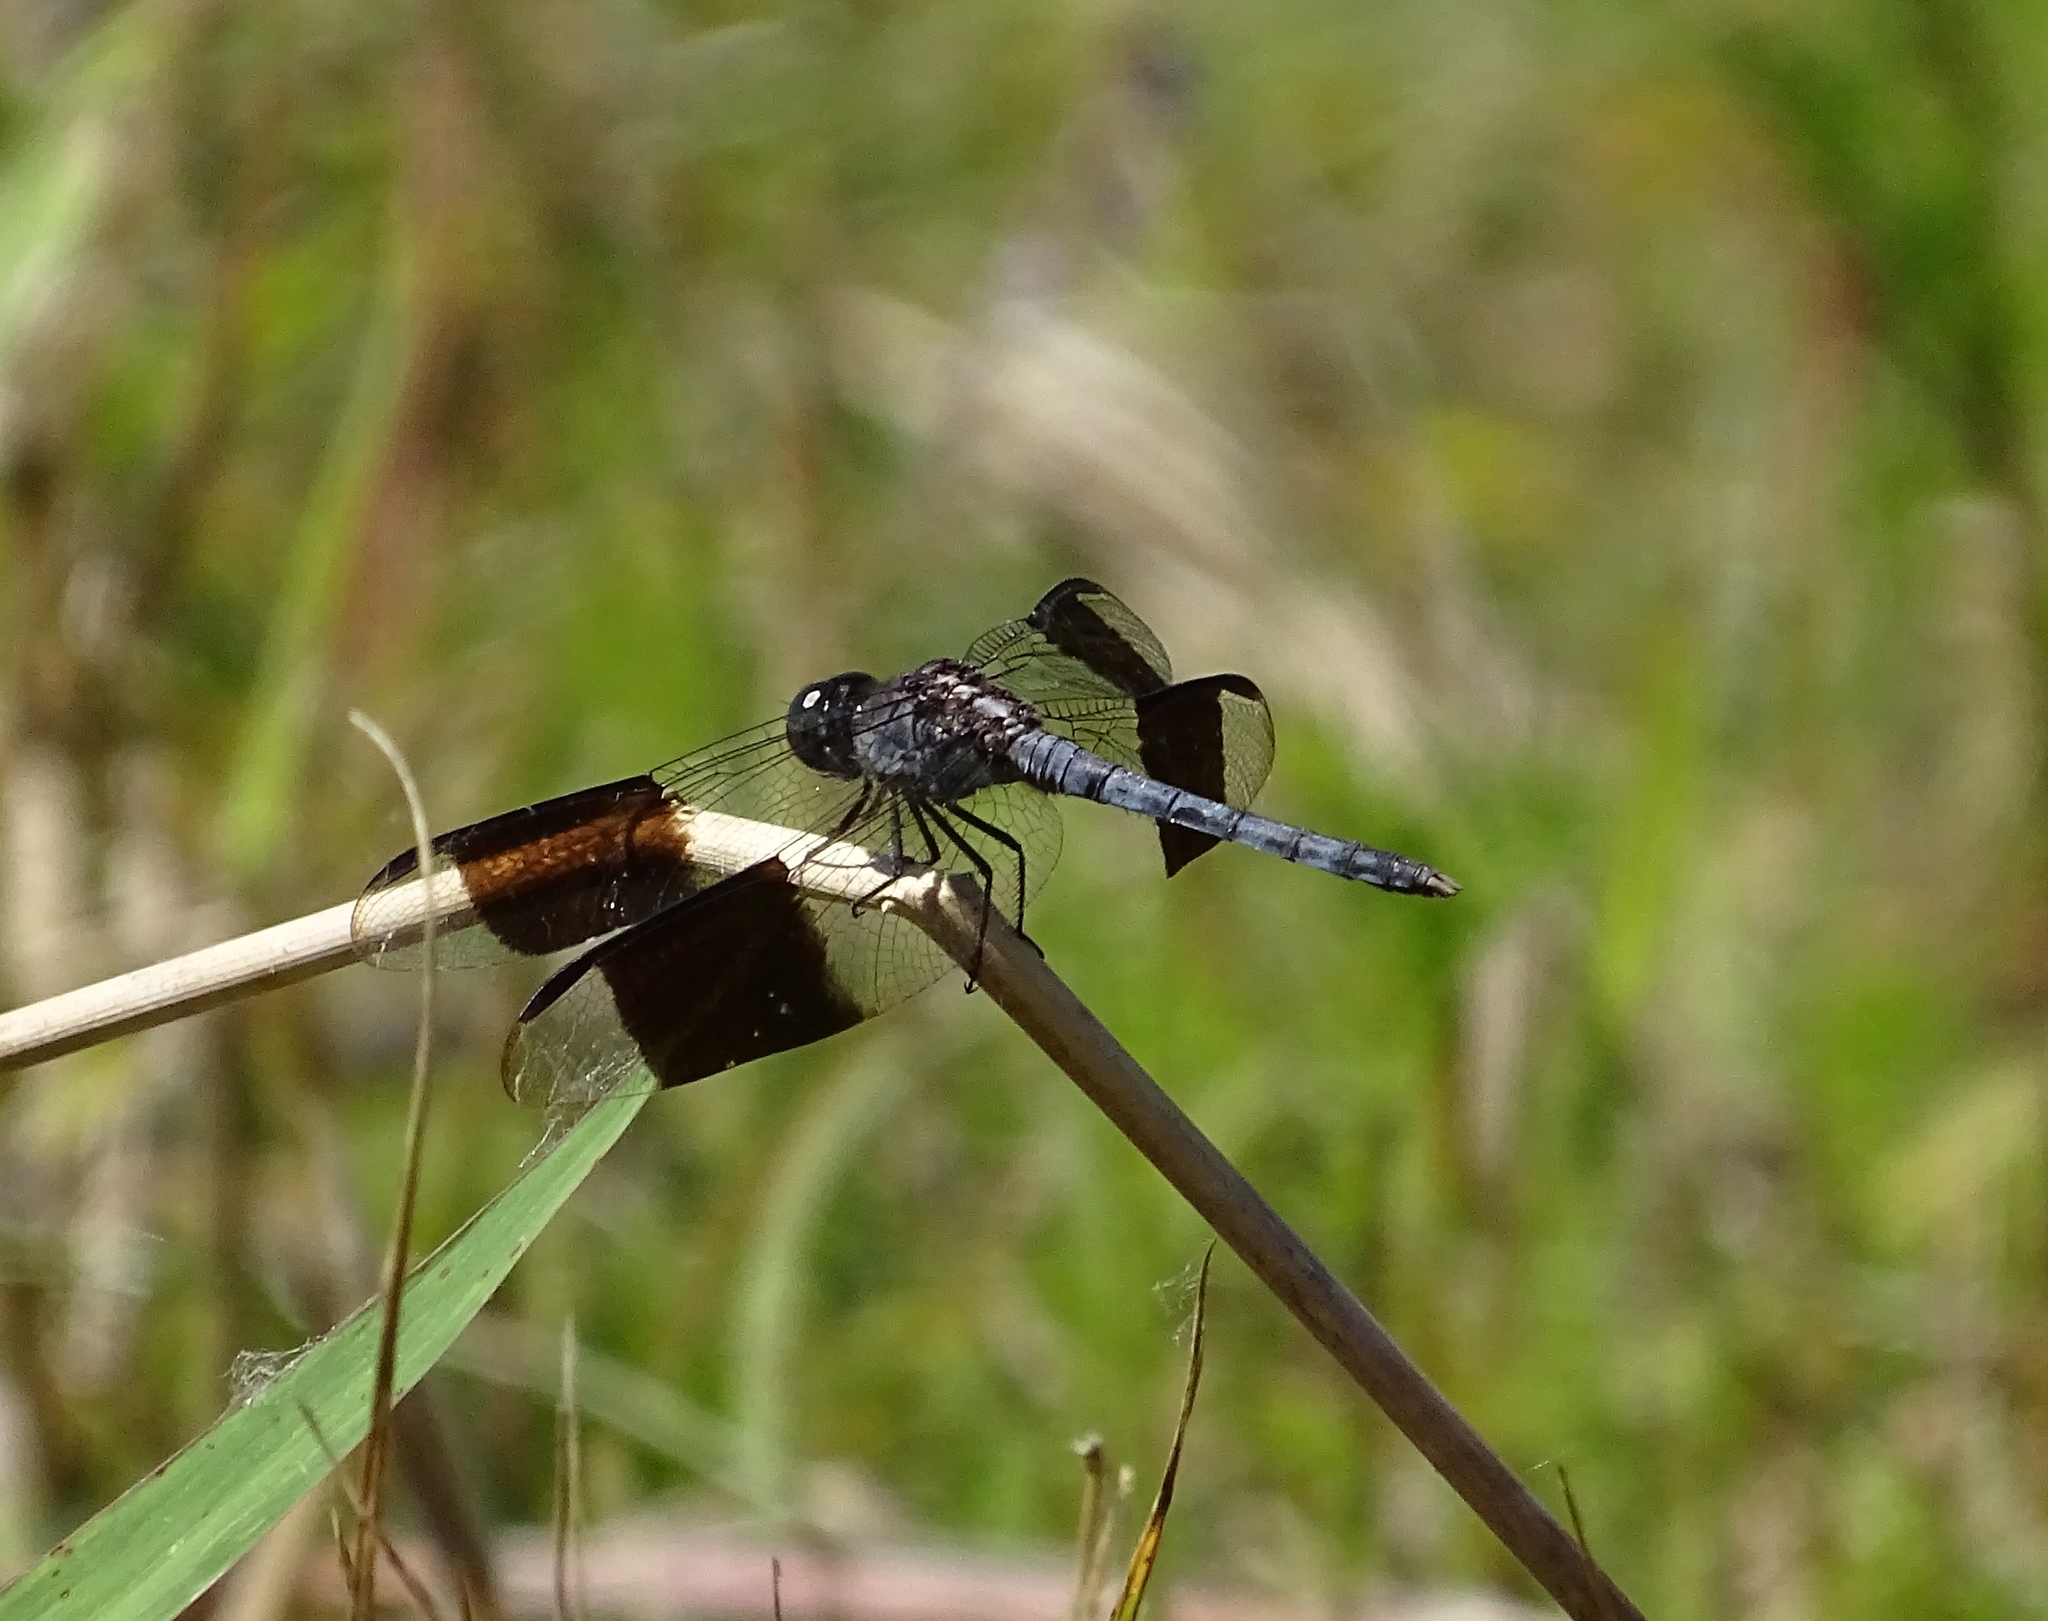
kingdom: Animalia
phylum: Arthropoda
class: Insecta
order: Odonata
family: Libellulidae
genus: Erythrodiplax
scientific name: Erythrodiplax umbrata
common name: Band-winged dragonlet
